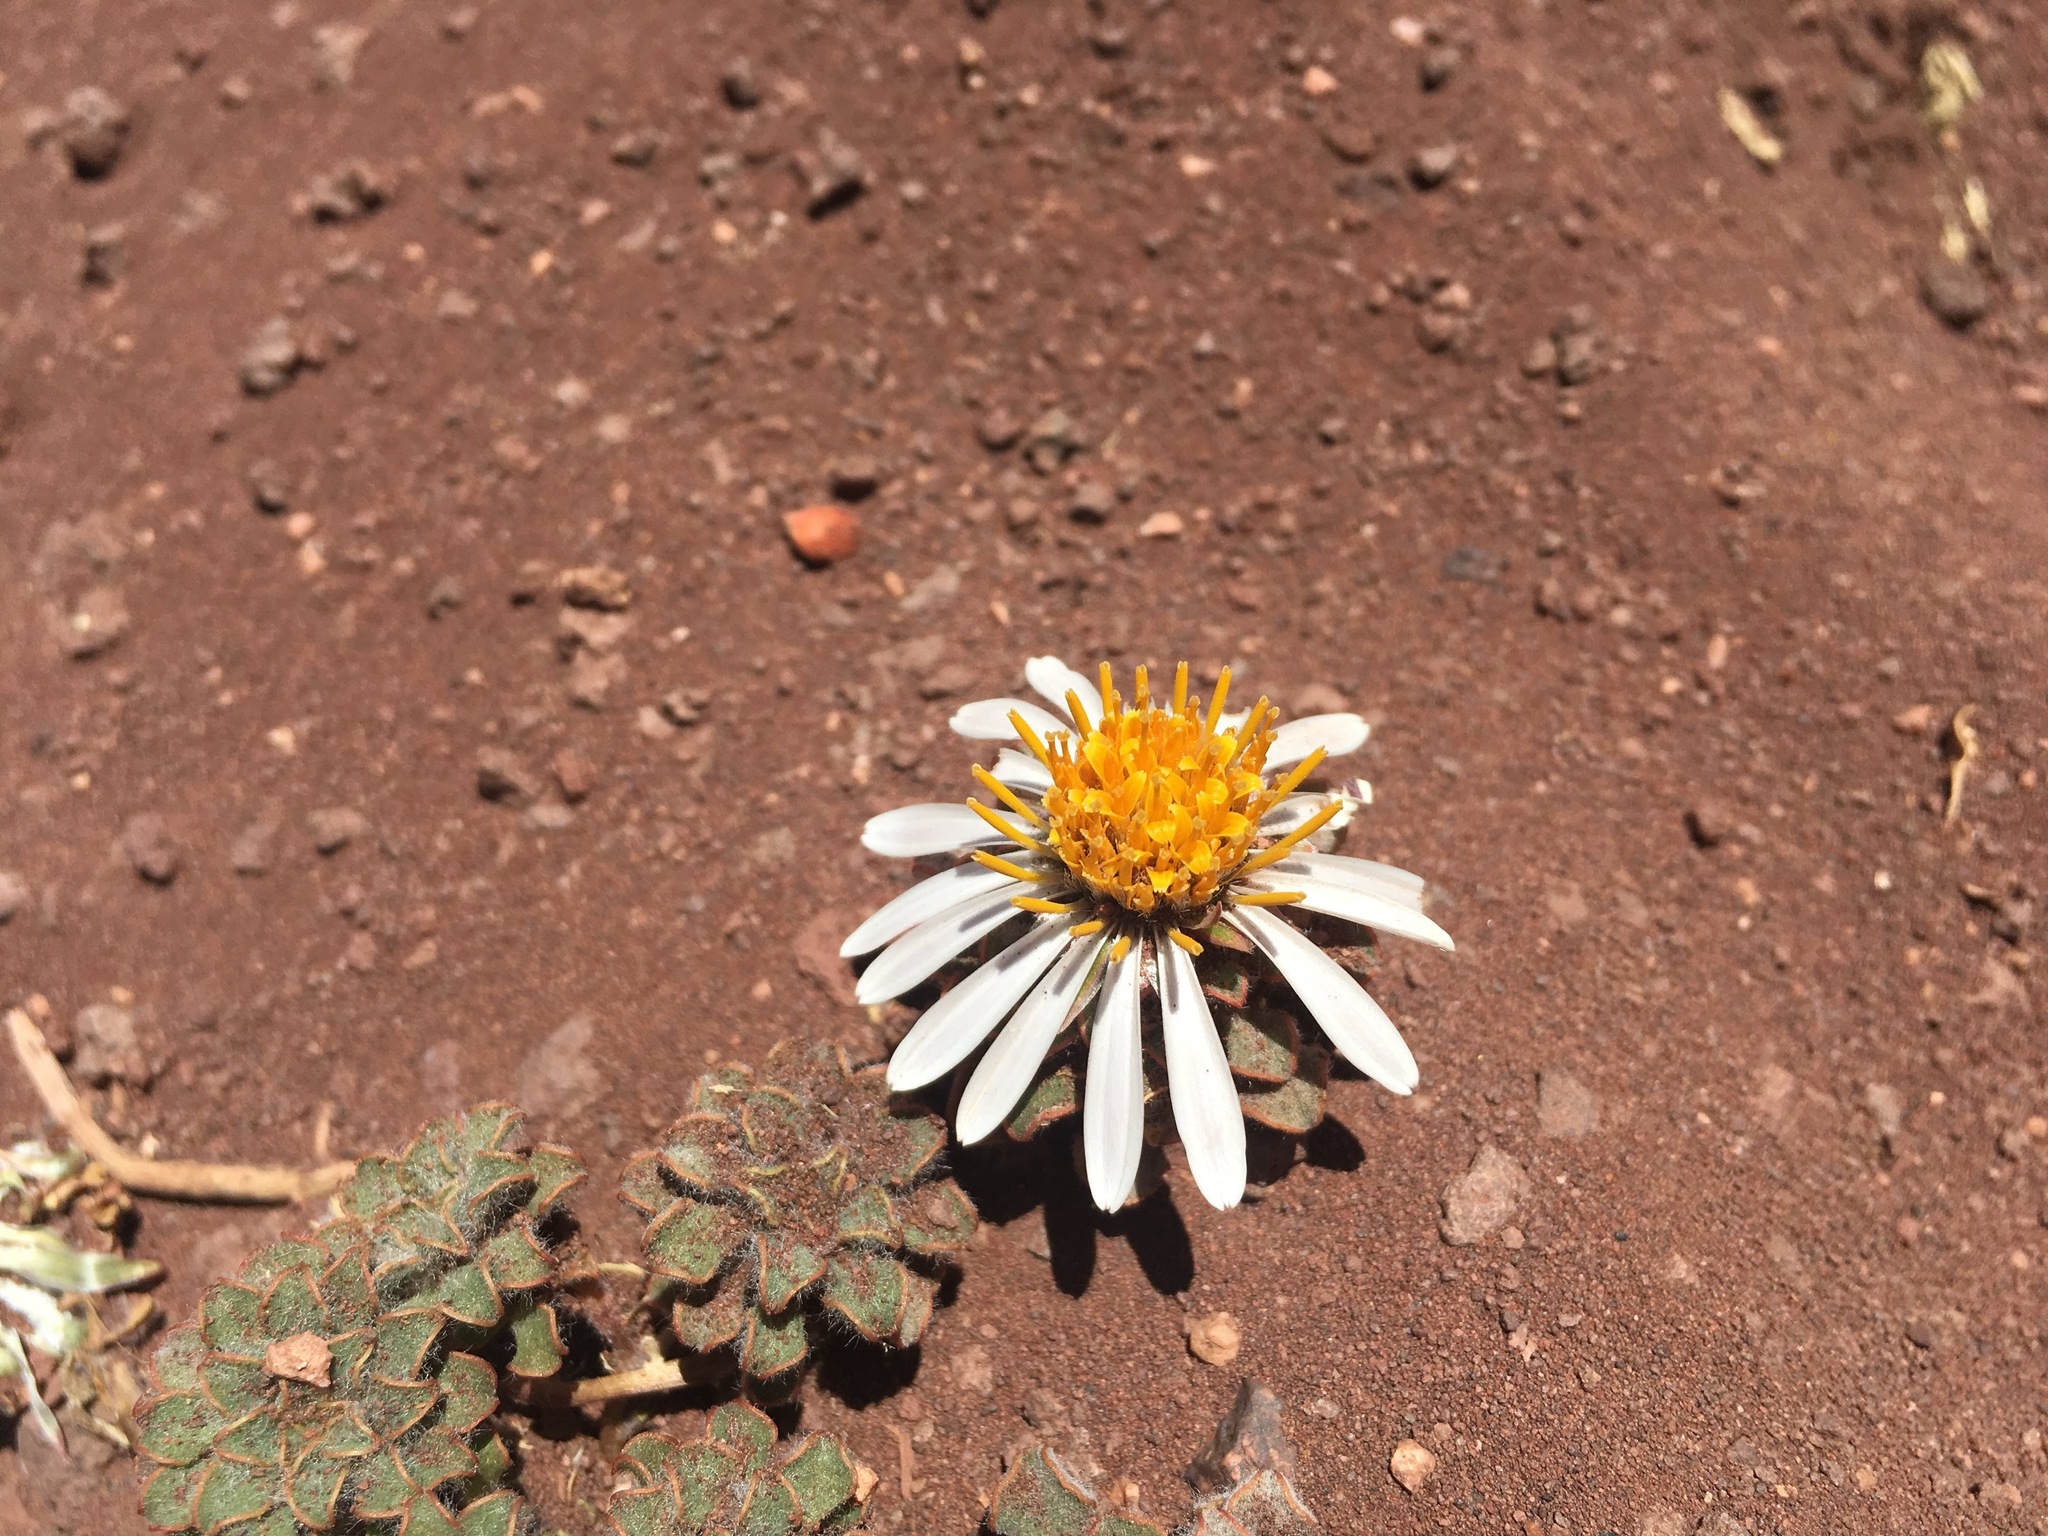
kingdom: Plantae
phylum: Tracheophyta
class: Magnoliopsida
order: Asterales
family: Asteraceae
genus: Chaetanthera
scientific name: Chaetanthera lanata
